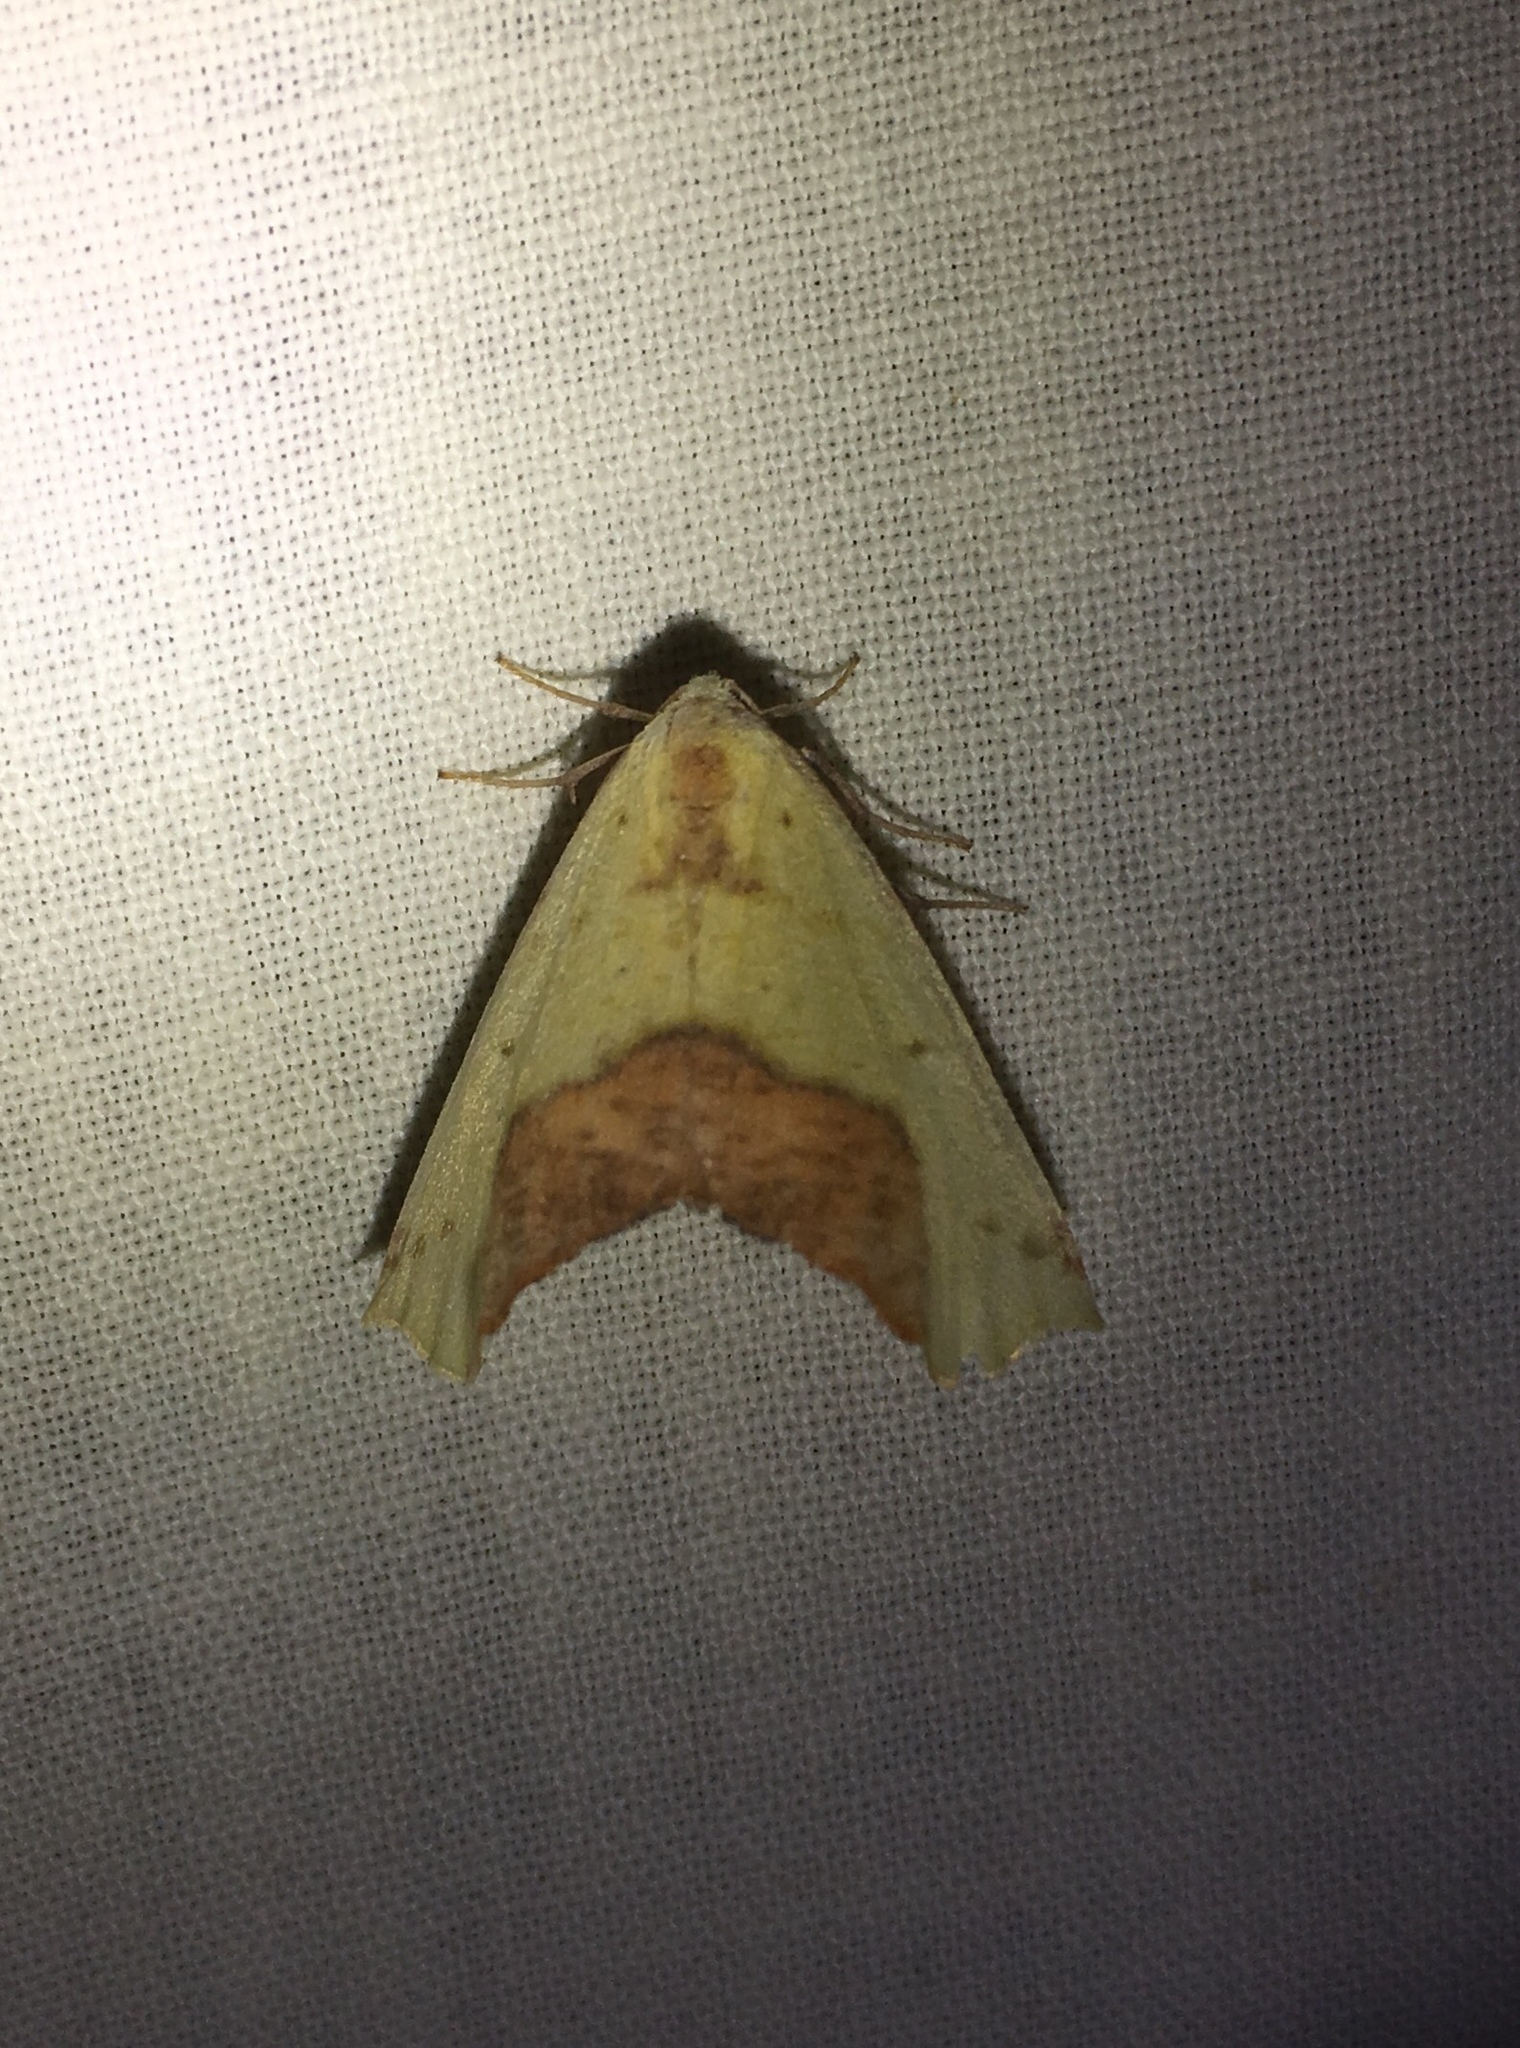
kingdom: Animalia
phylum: Arthropoda
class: Insecta
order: Lepidoptera
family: Geometridae
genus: Sicya
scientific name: Sicya macularia
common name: Sharp-lined yellow
